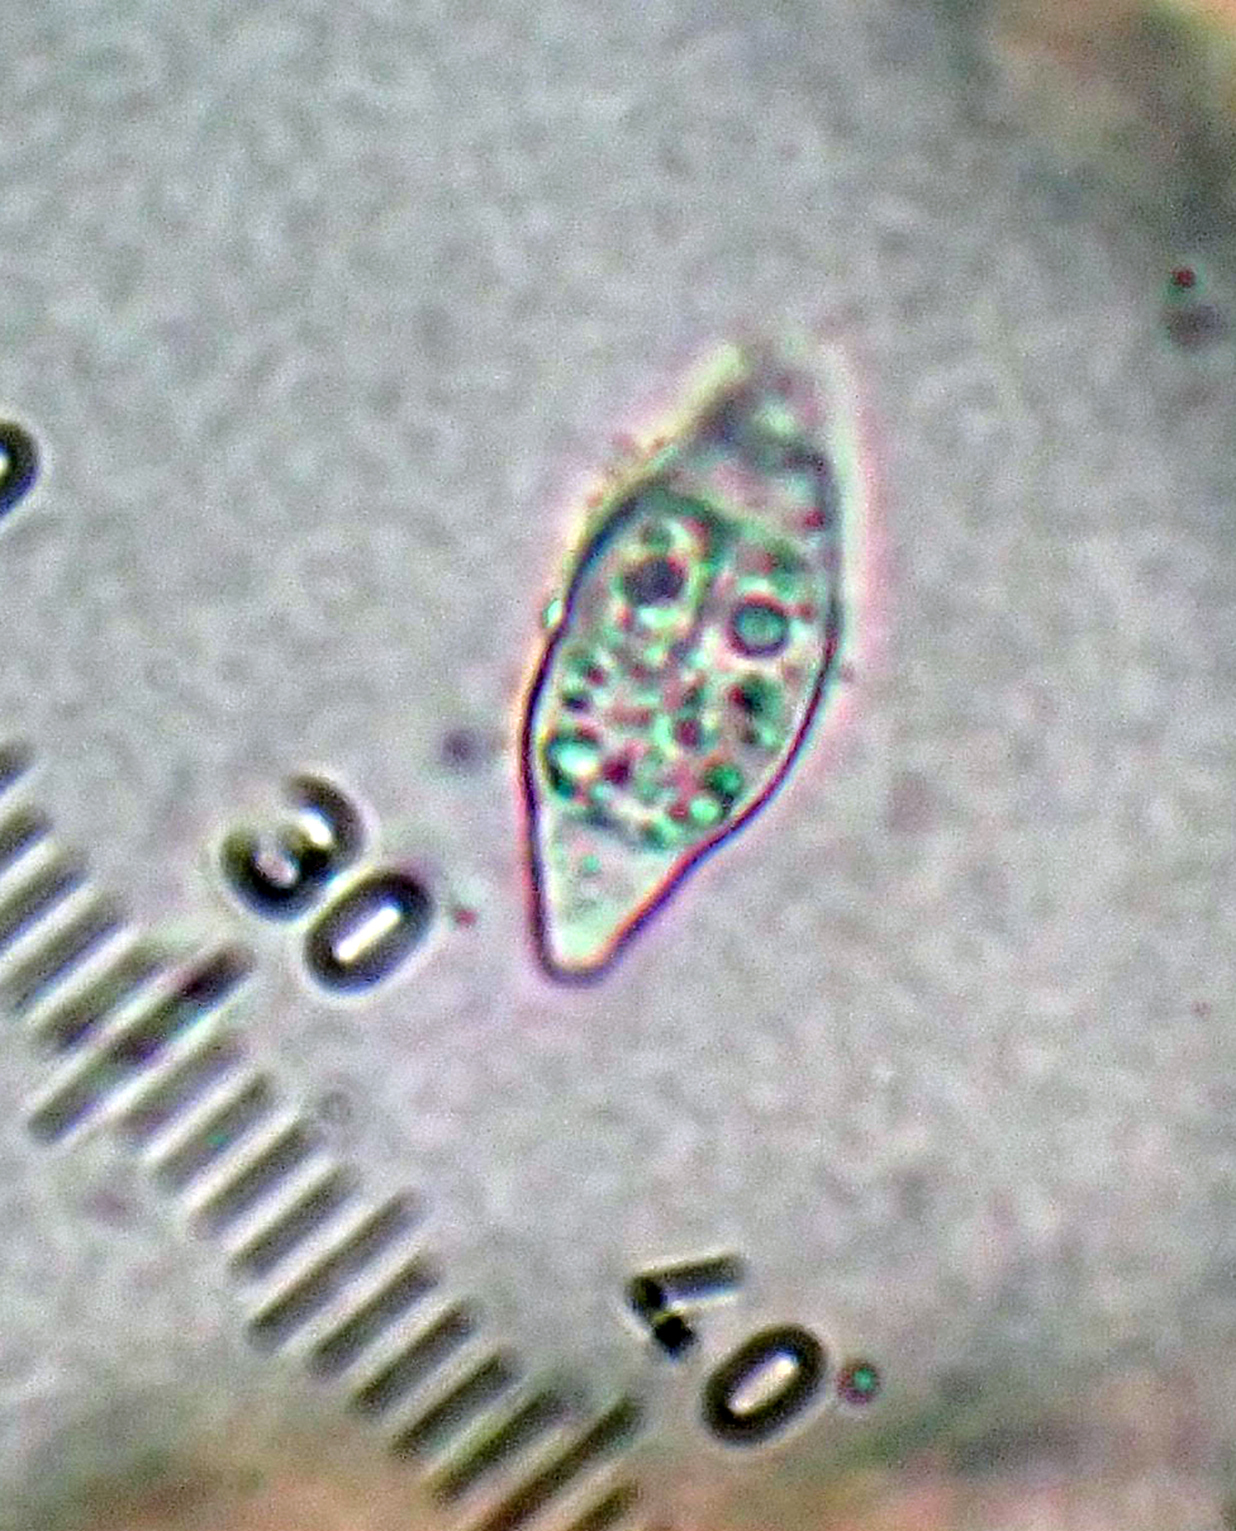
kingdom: Fungi
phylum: Ascomycota
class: Lecanoromycetes
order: Peltigerales
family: Collemataceae
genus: Leptogium
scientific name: Leptogium
